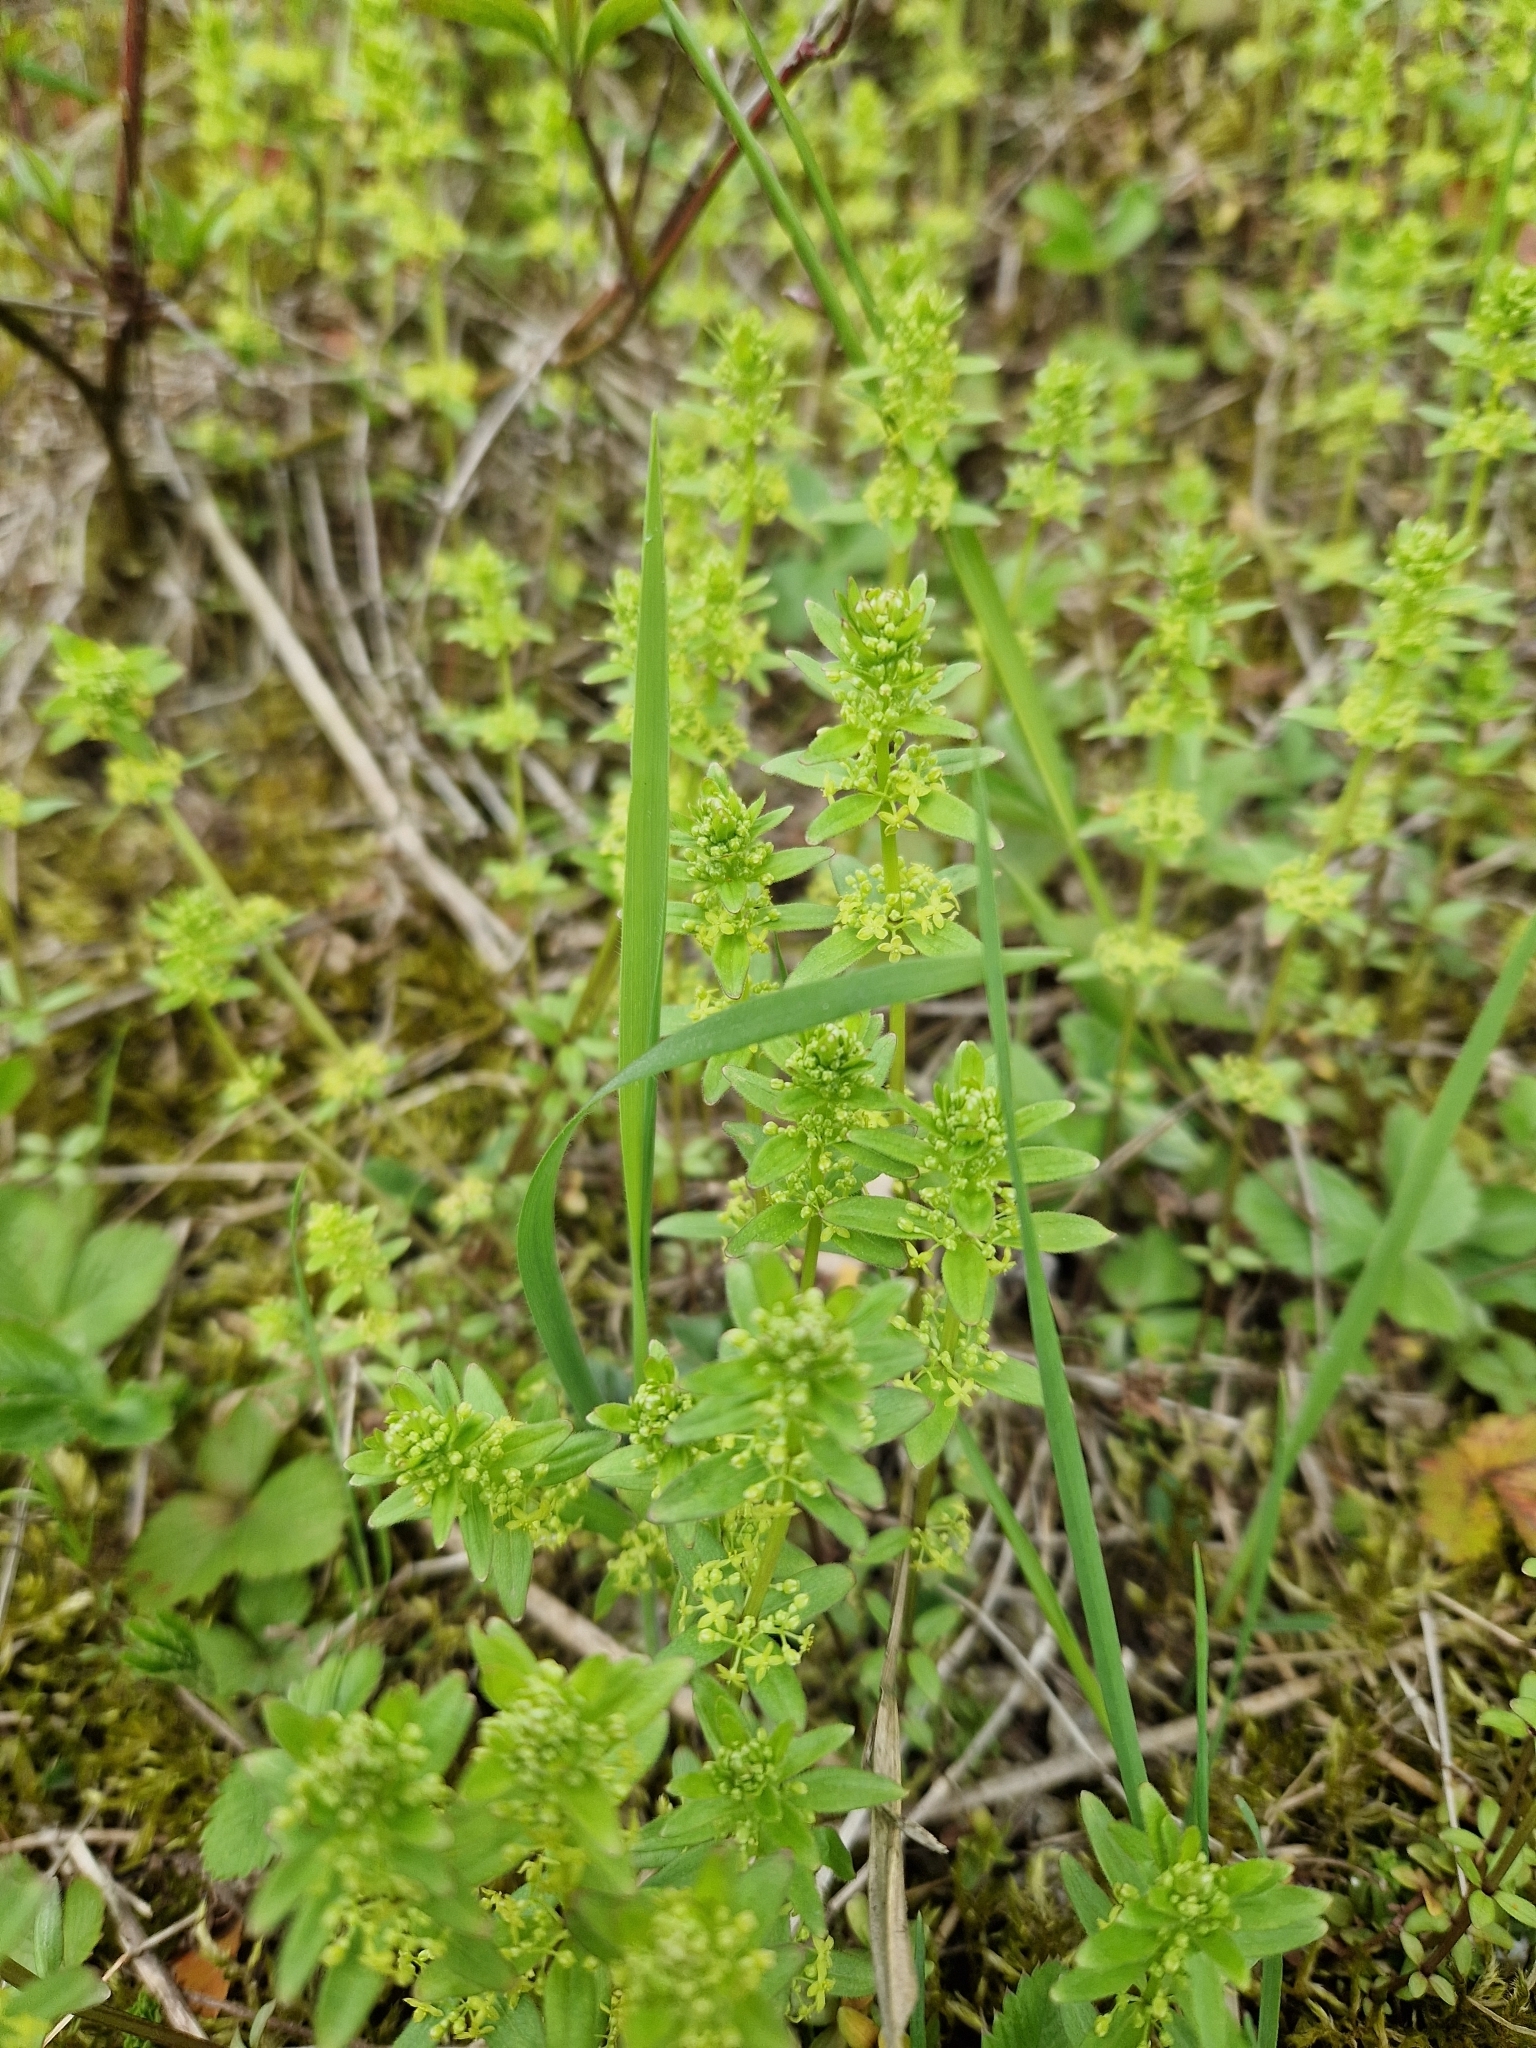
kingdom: Plantae
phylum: Tracheophyta
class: Magnoliopsida
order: Gentianales
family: Rubiaceae
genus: Cruciata
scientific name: Cruciata glabra
